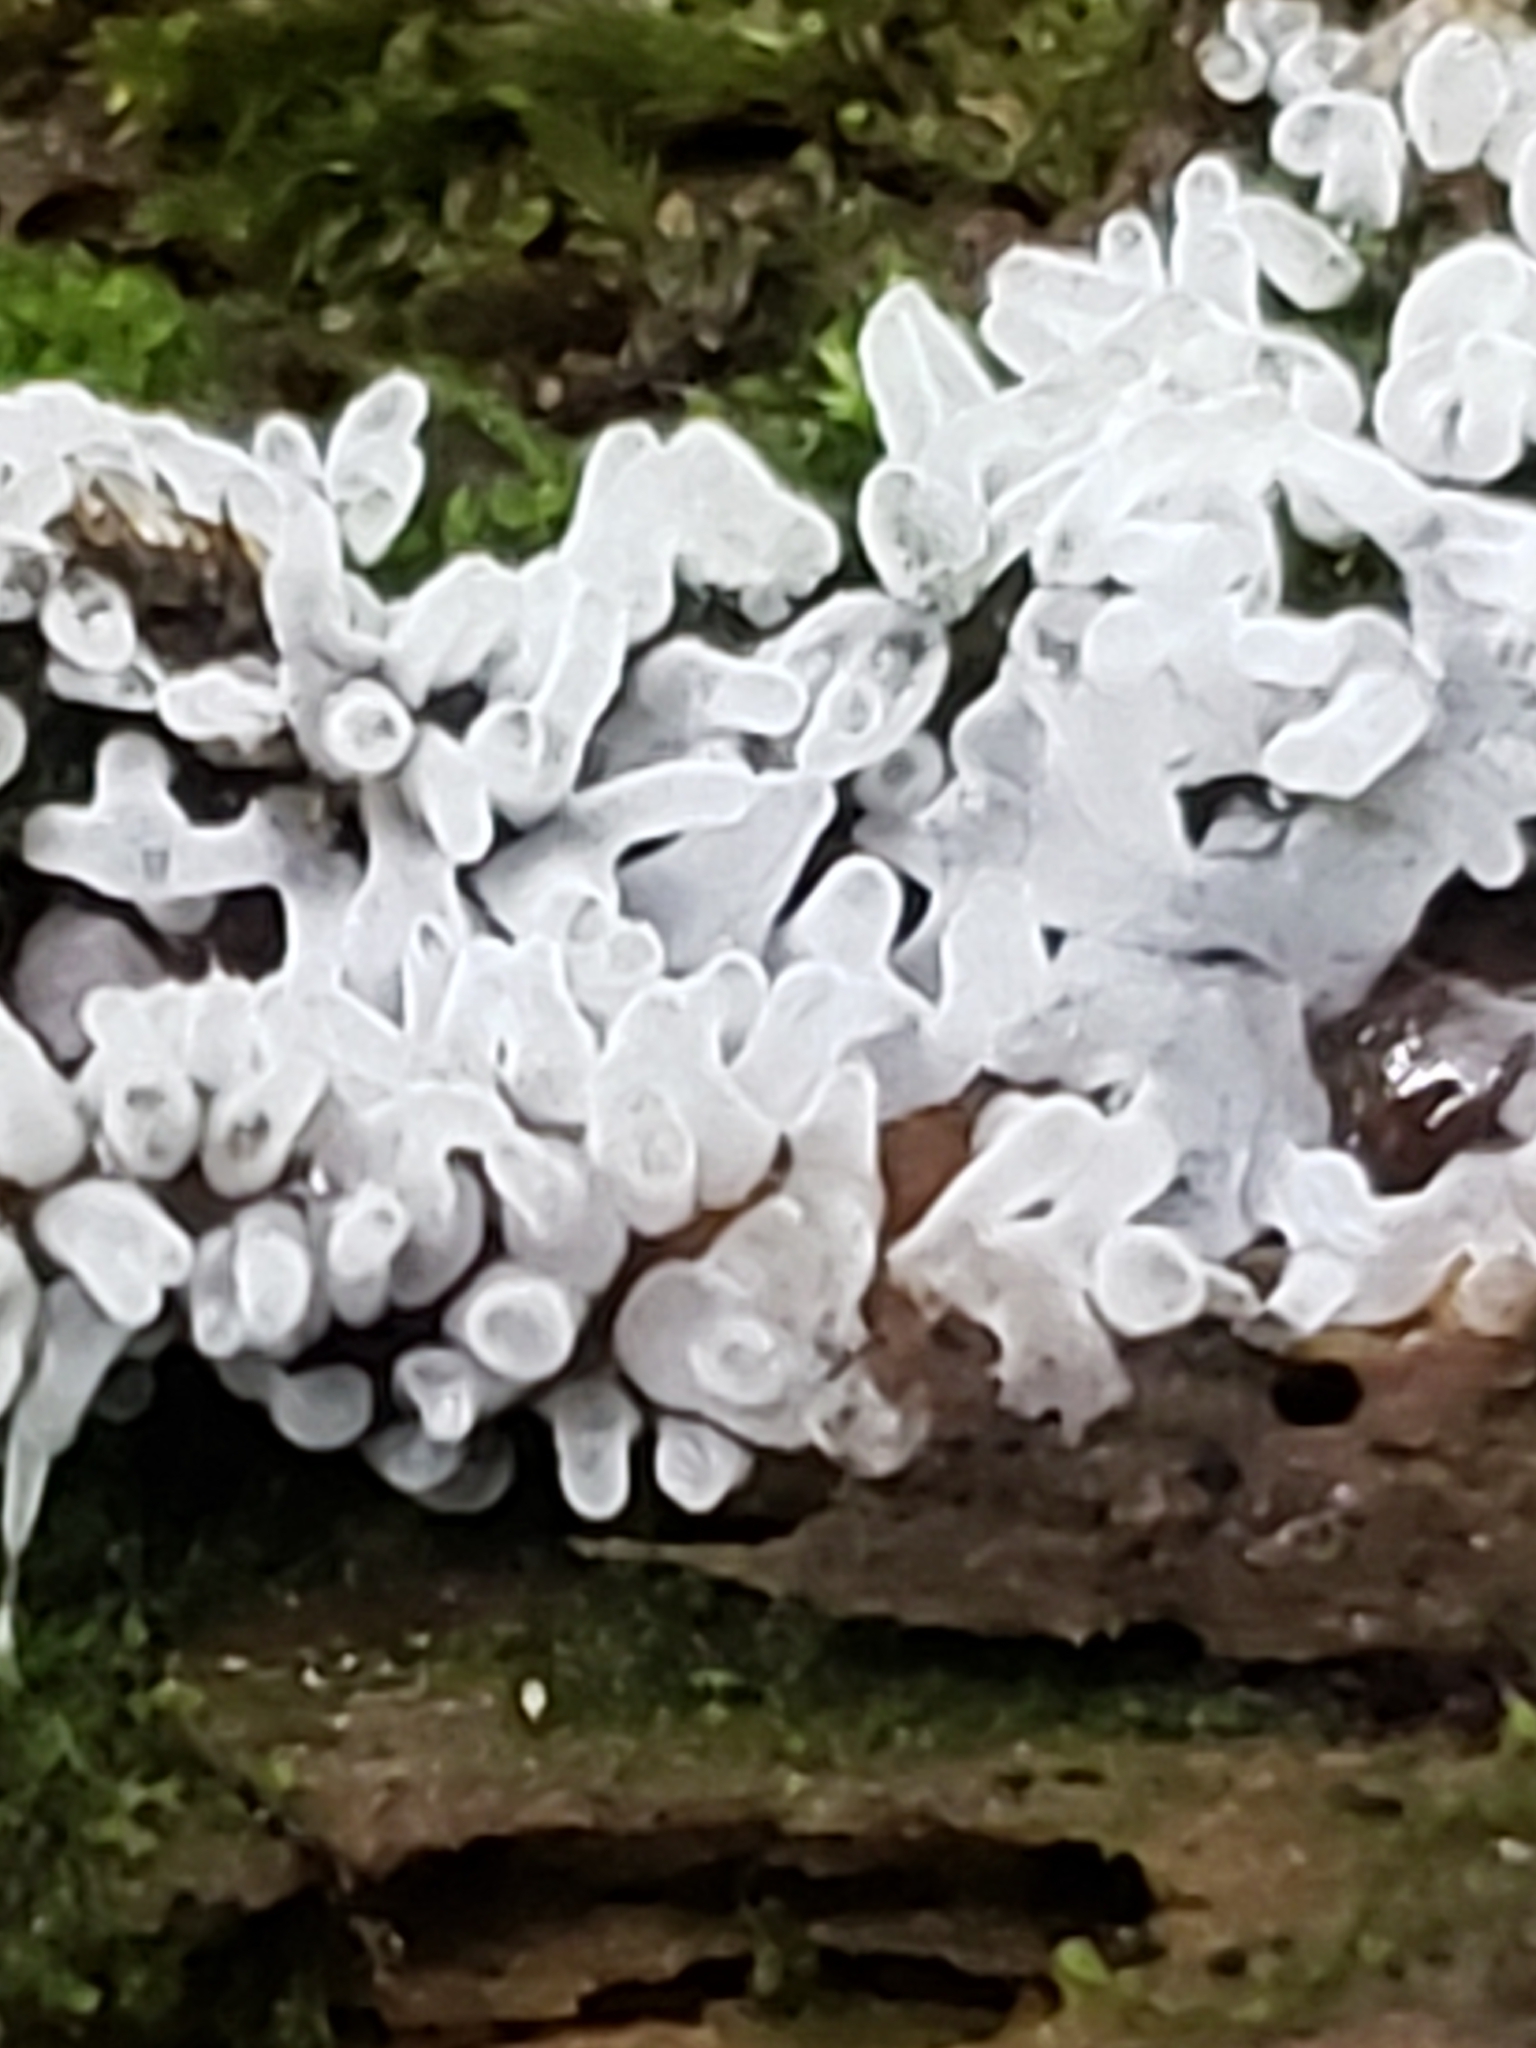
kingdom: Protozoa
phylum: Mycetozoa
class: Protosteliomycetes
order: Ceratiomyxales
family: Ceratiomyxaceae
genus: Ceratiomyxa
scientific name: Ceratiomyxa fruticulosa
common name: Honeycomb coral slime mold
